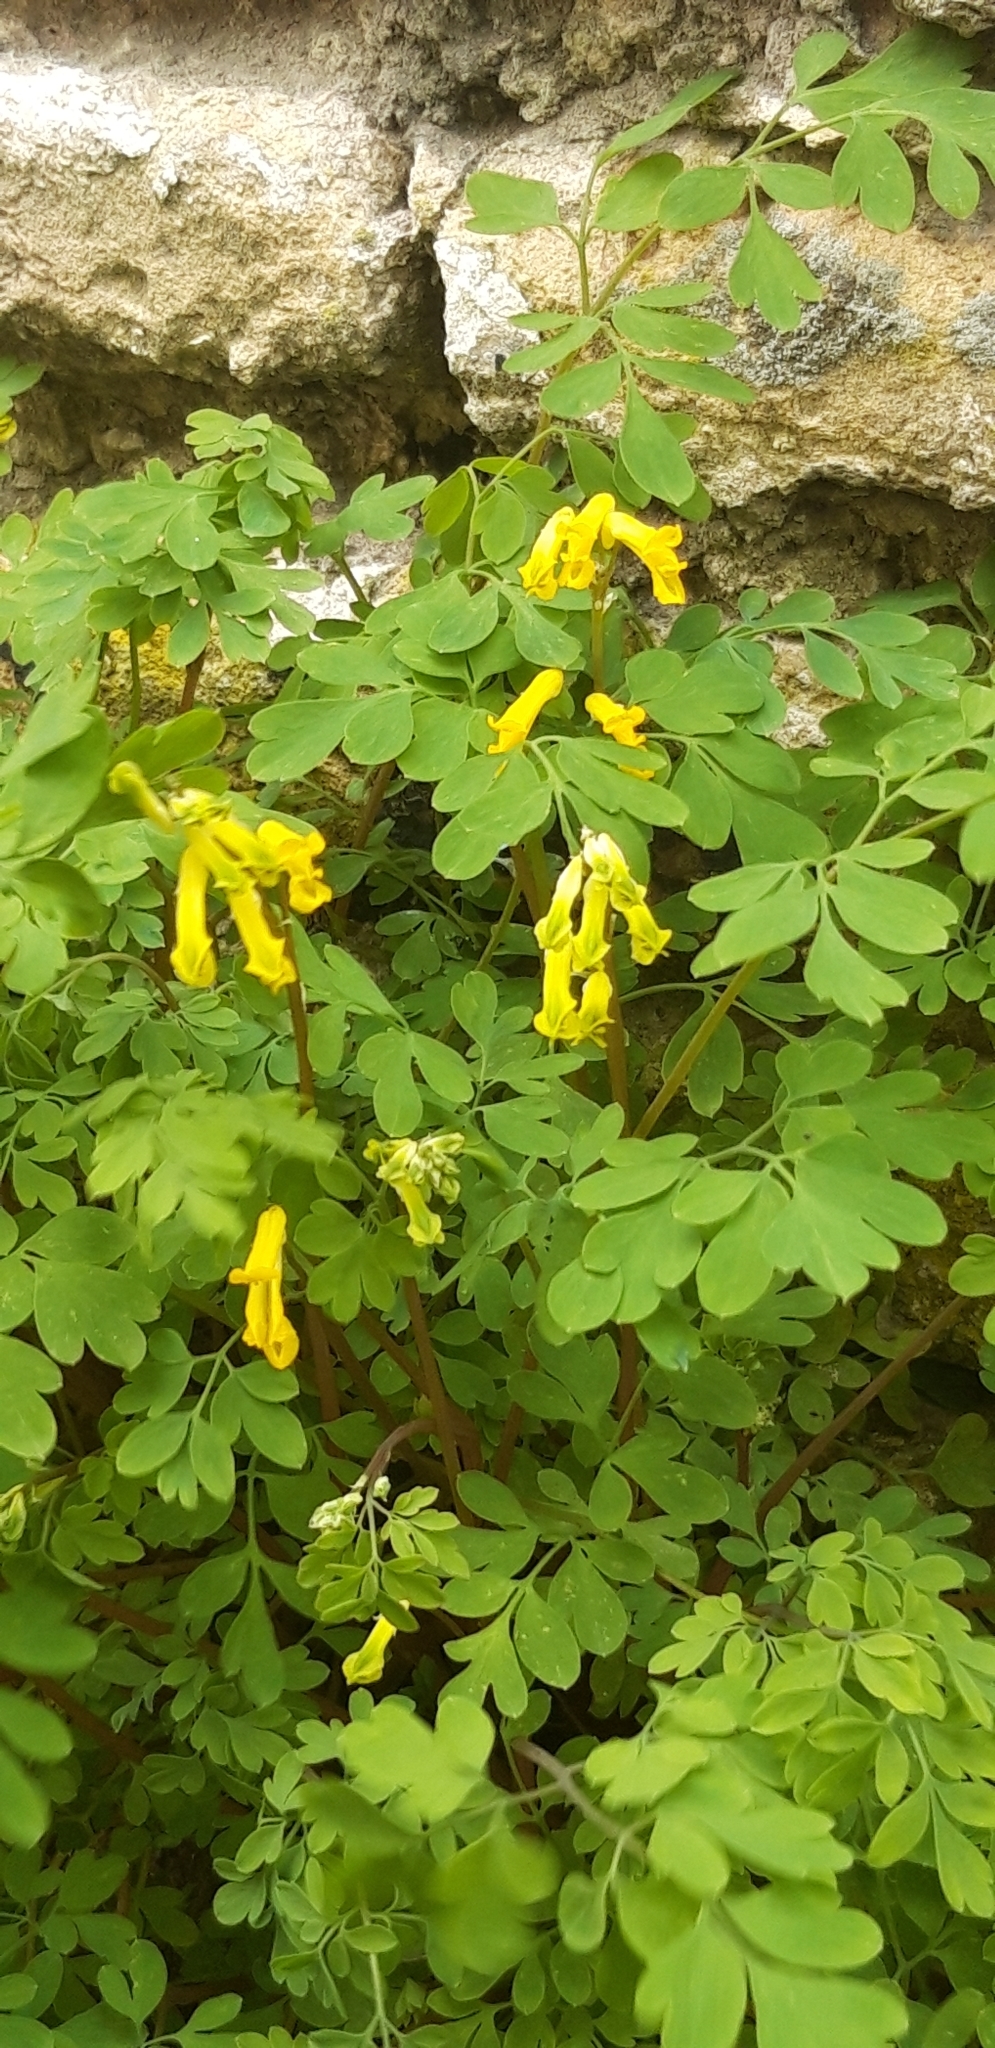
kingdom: Plantae
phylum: Tracheophyta
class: Magnoliopsida
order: Ranunculales
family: Papaveraceae
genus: Pseudofumaria
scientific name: Pseudofumaria lutea
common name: Yellow corydalis
